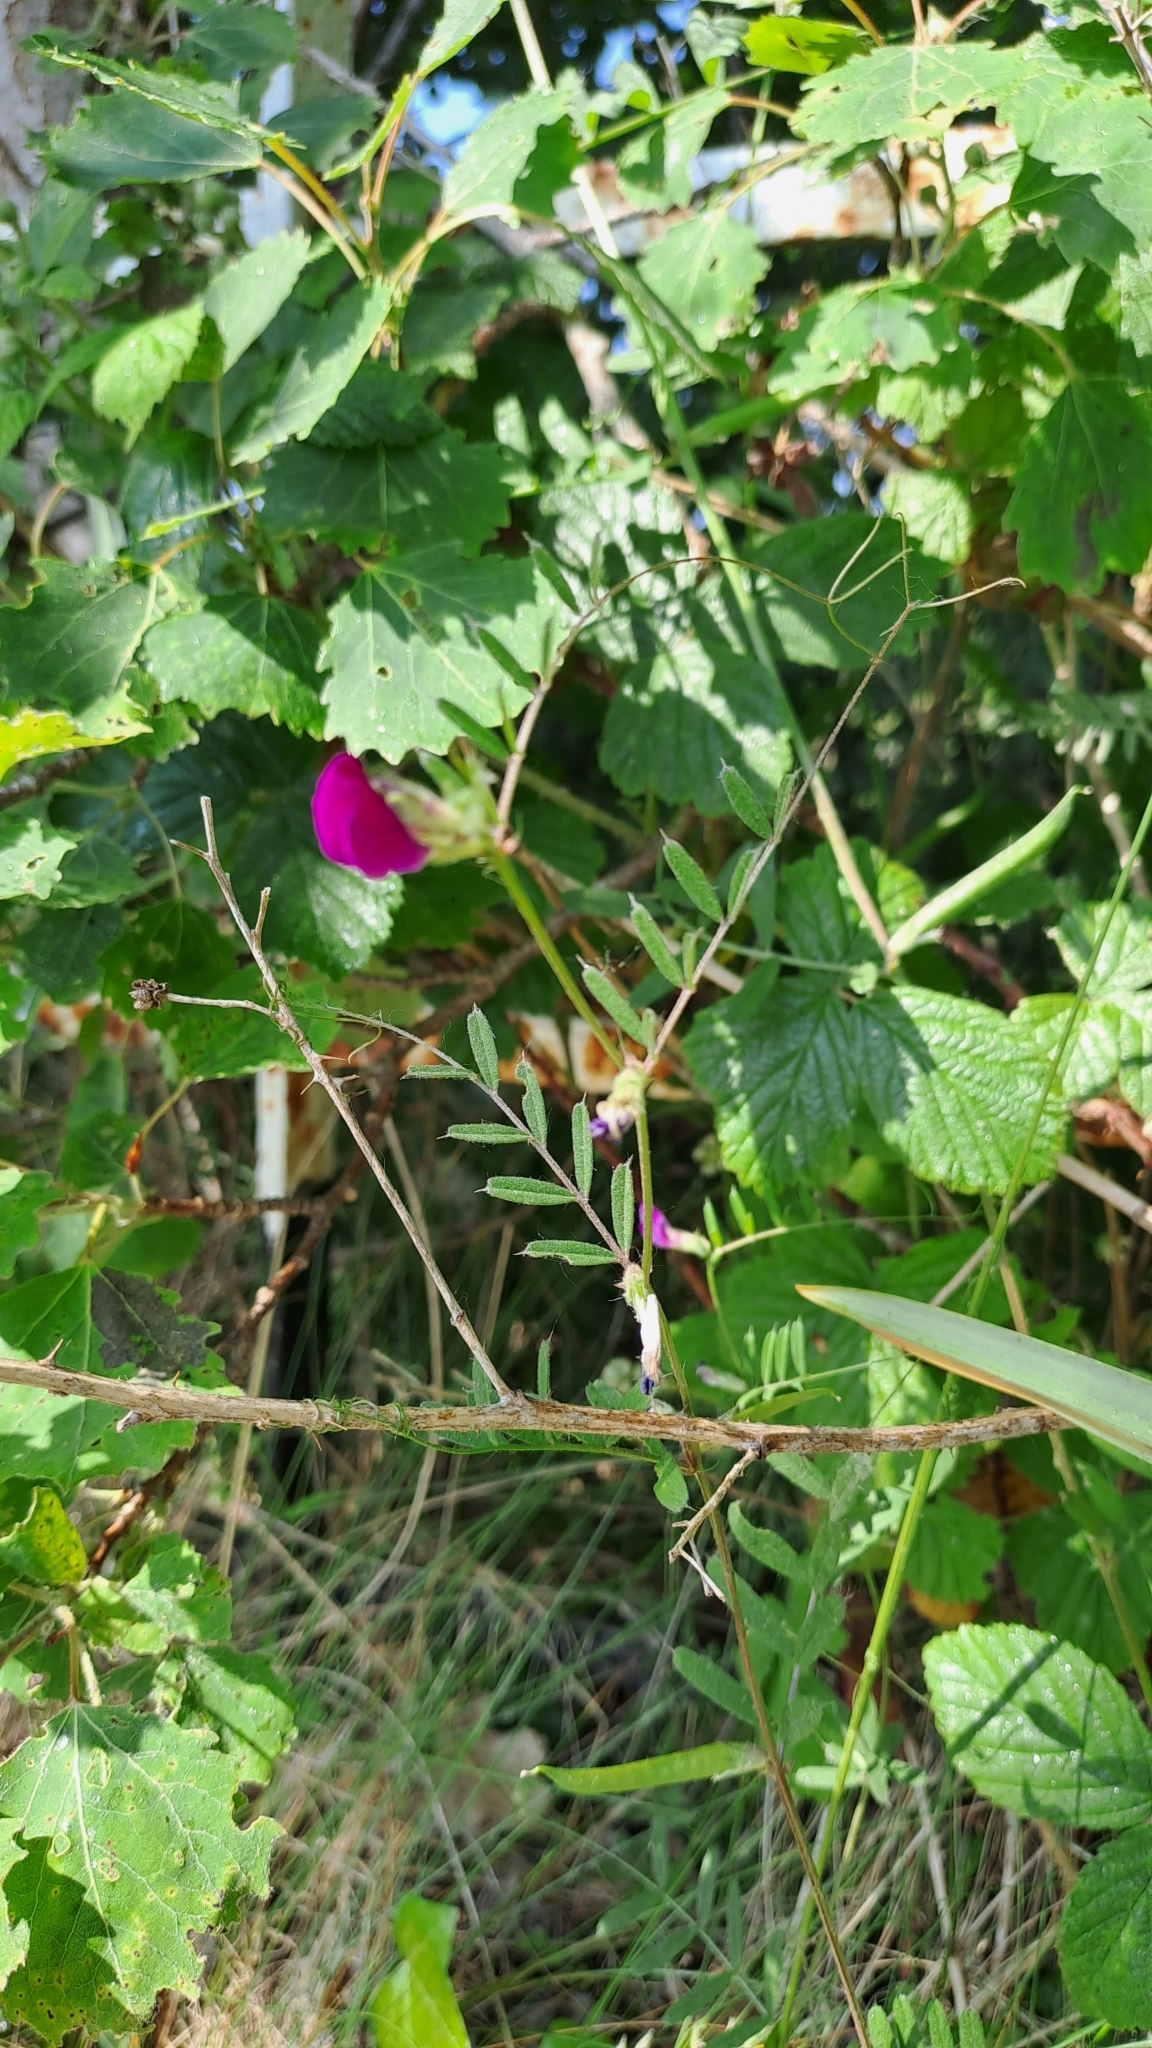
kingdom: Plantae
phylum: Tracheophyta
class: Magnoliopsida
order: Fabales
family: Fabaceae
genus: Vicia
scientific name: Vicia sativa
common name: Garden vetch
